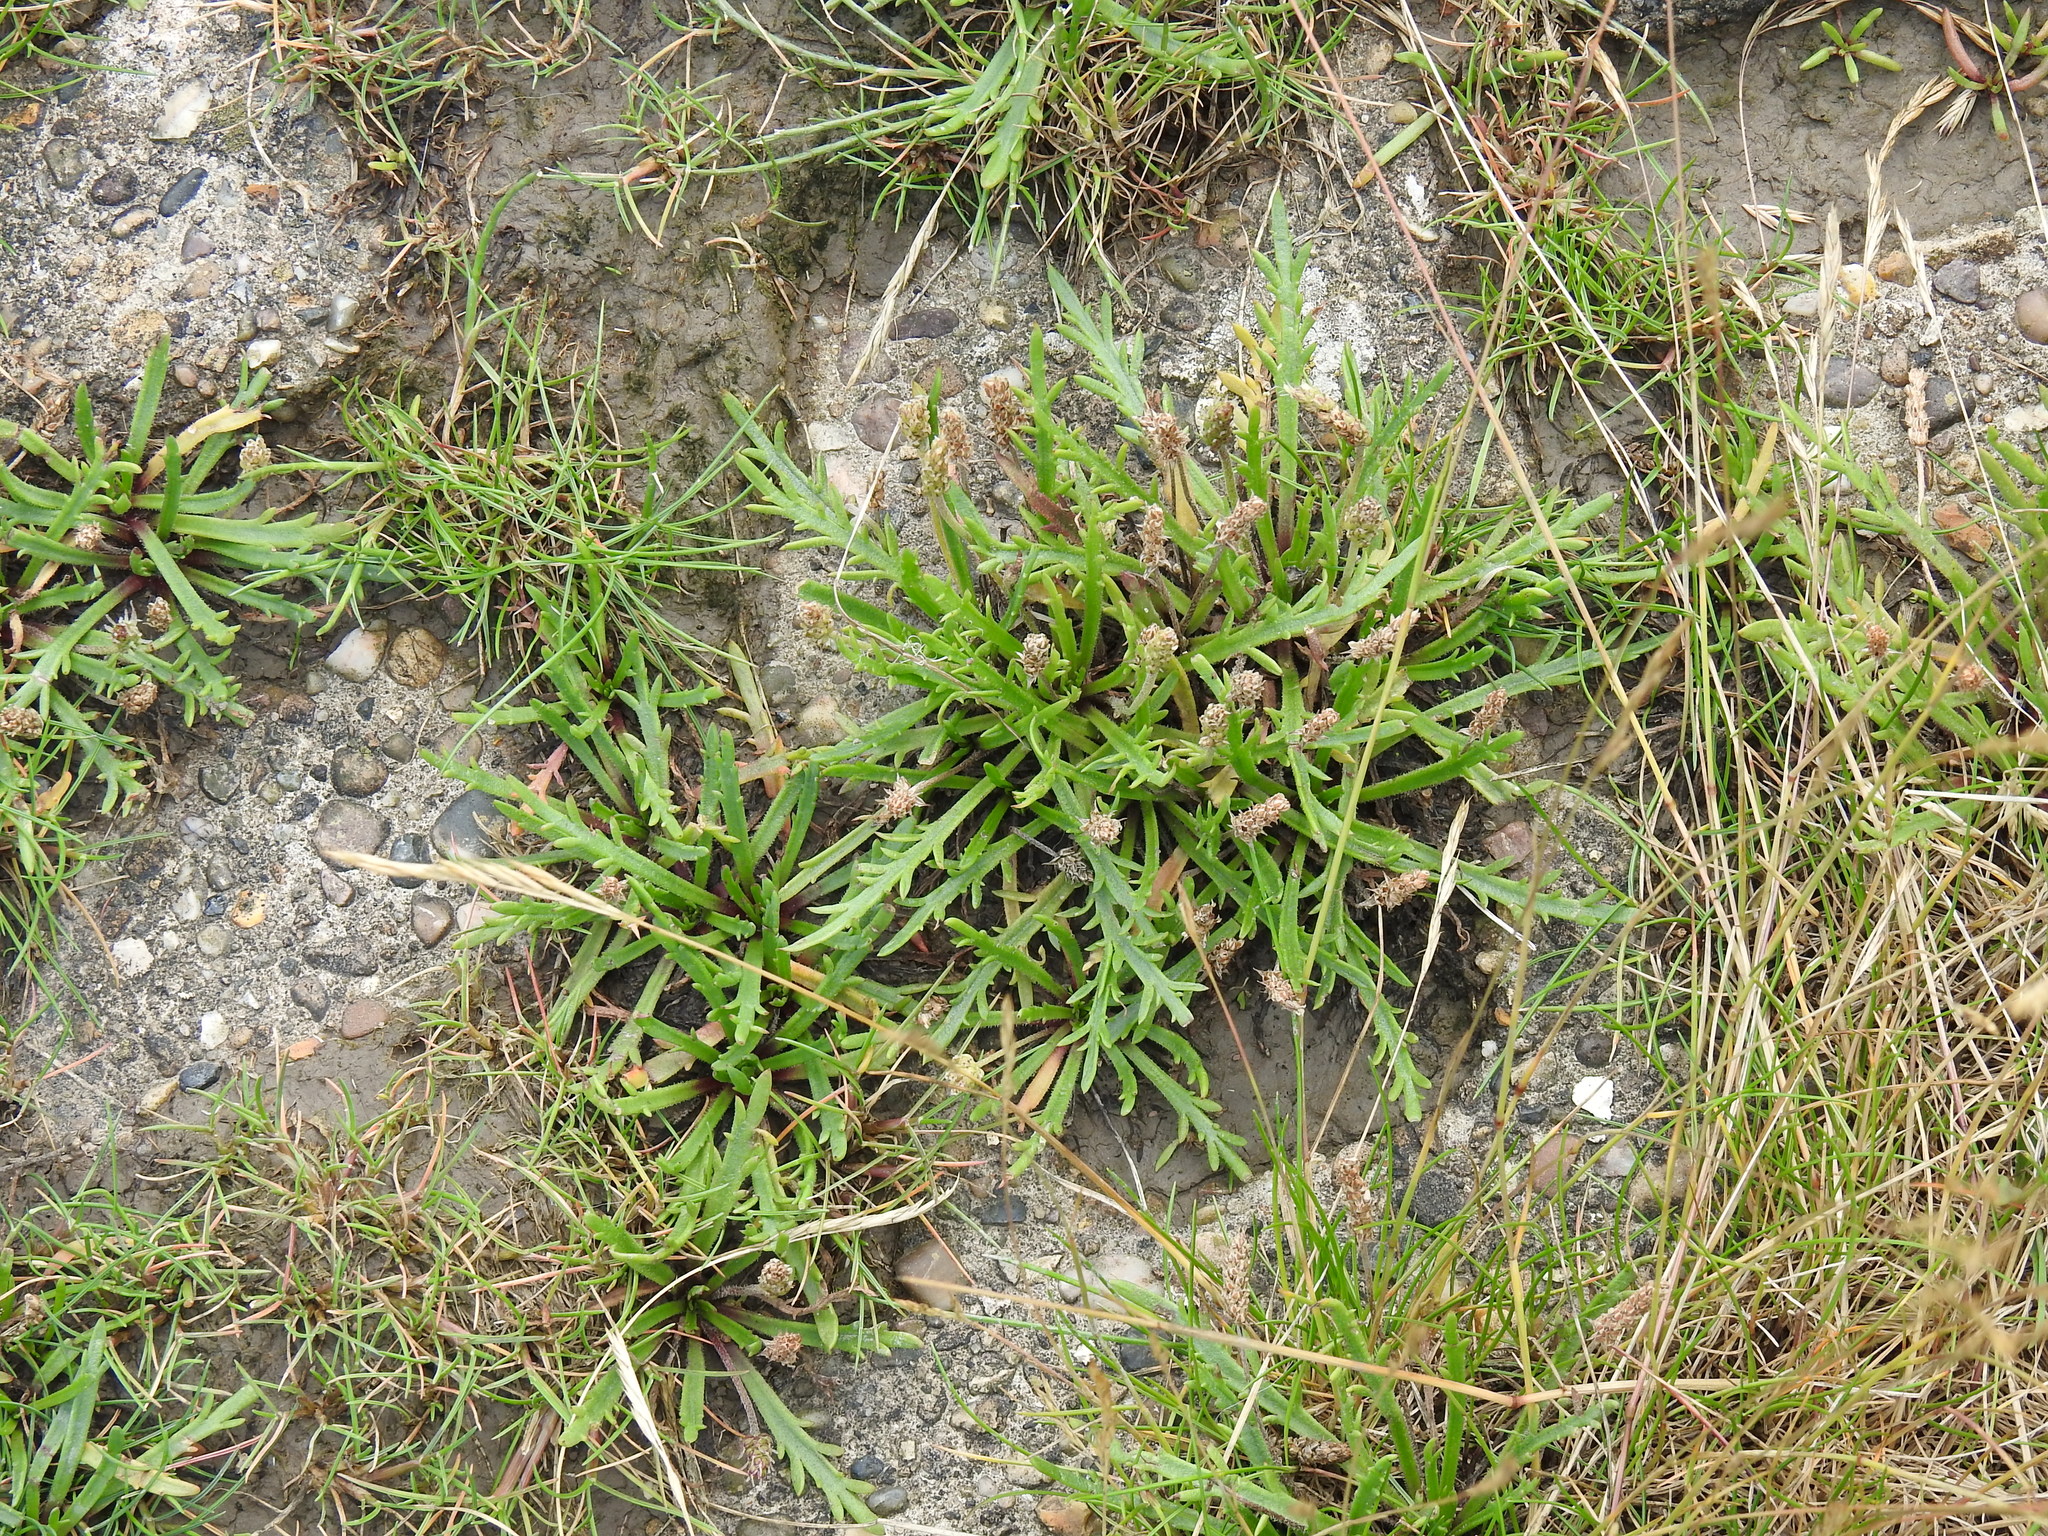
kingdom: Plantae
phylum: Tracheophyta
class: Magnoliopsida
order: Lamiales
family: Plantaginaceae
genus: Plantago
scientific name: Plantago coronopus
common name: Buck's-horn plantain
